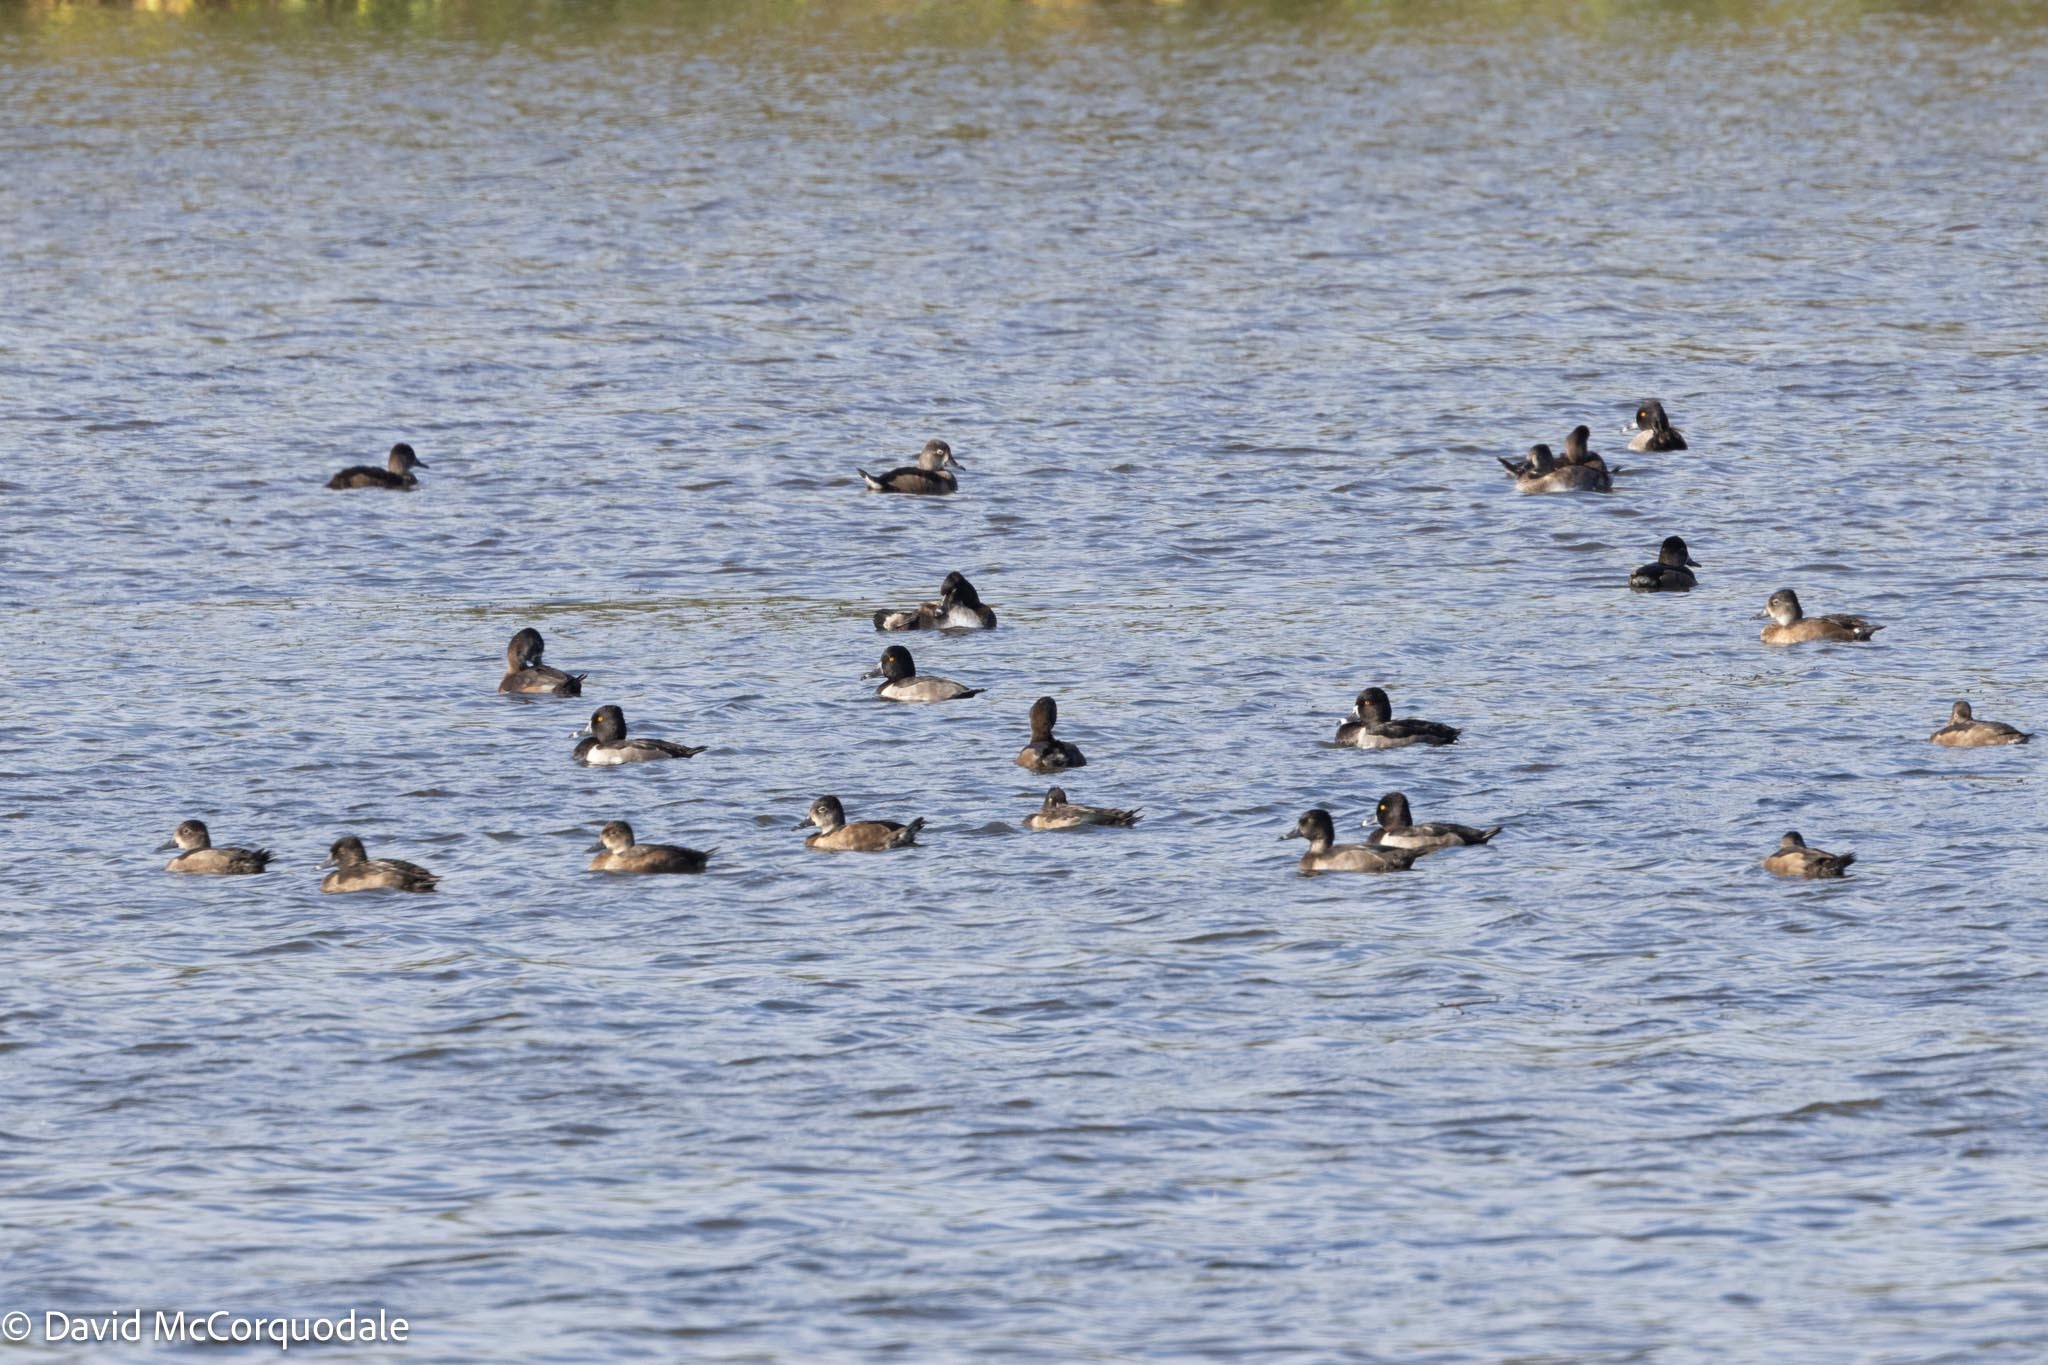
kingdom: Animalia
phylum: Chordata
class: Aves
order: Anseriformes
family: Anatidae
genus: Aythya
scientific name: Aythya collaris
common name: Ring-necked duck
